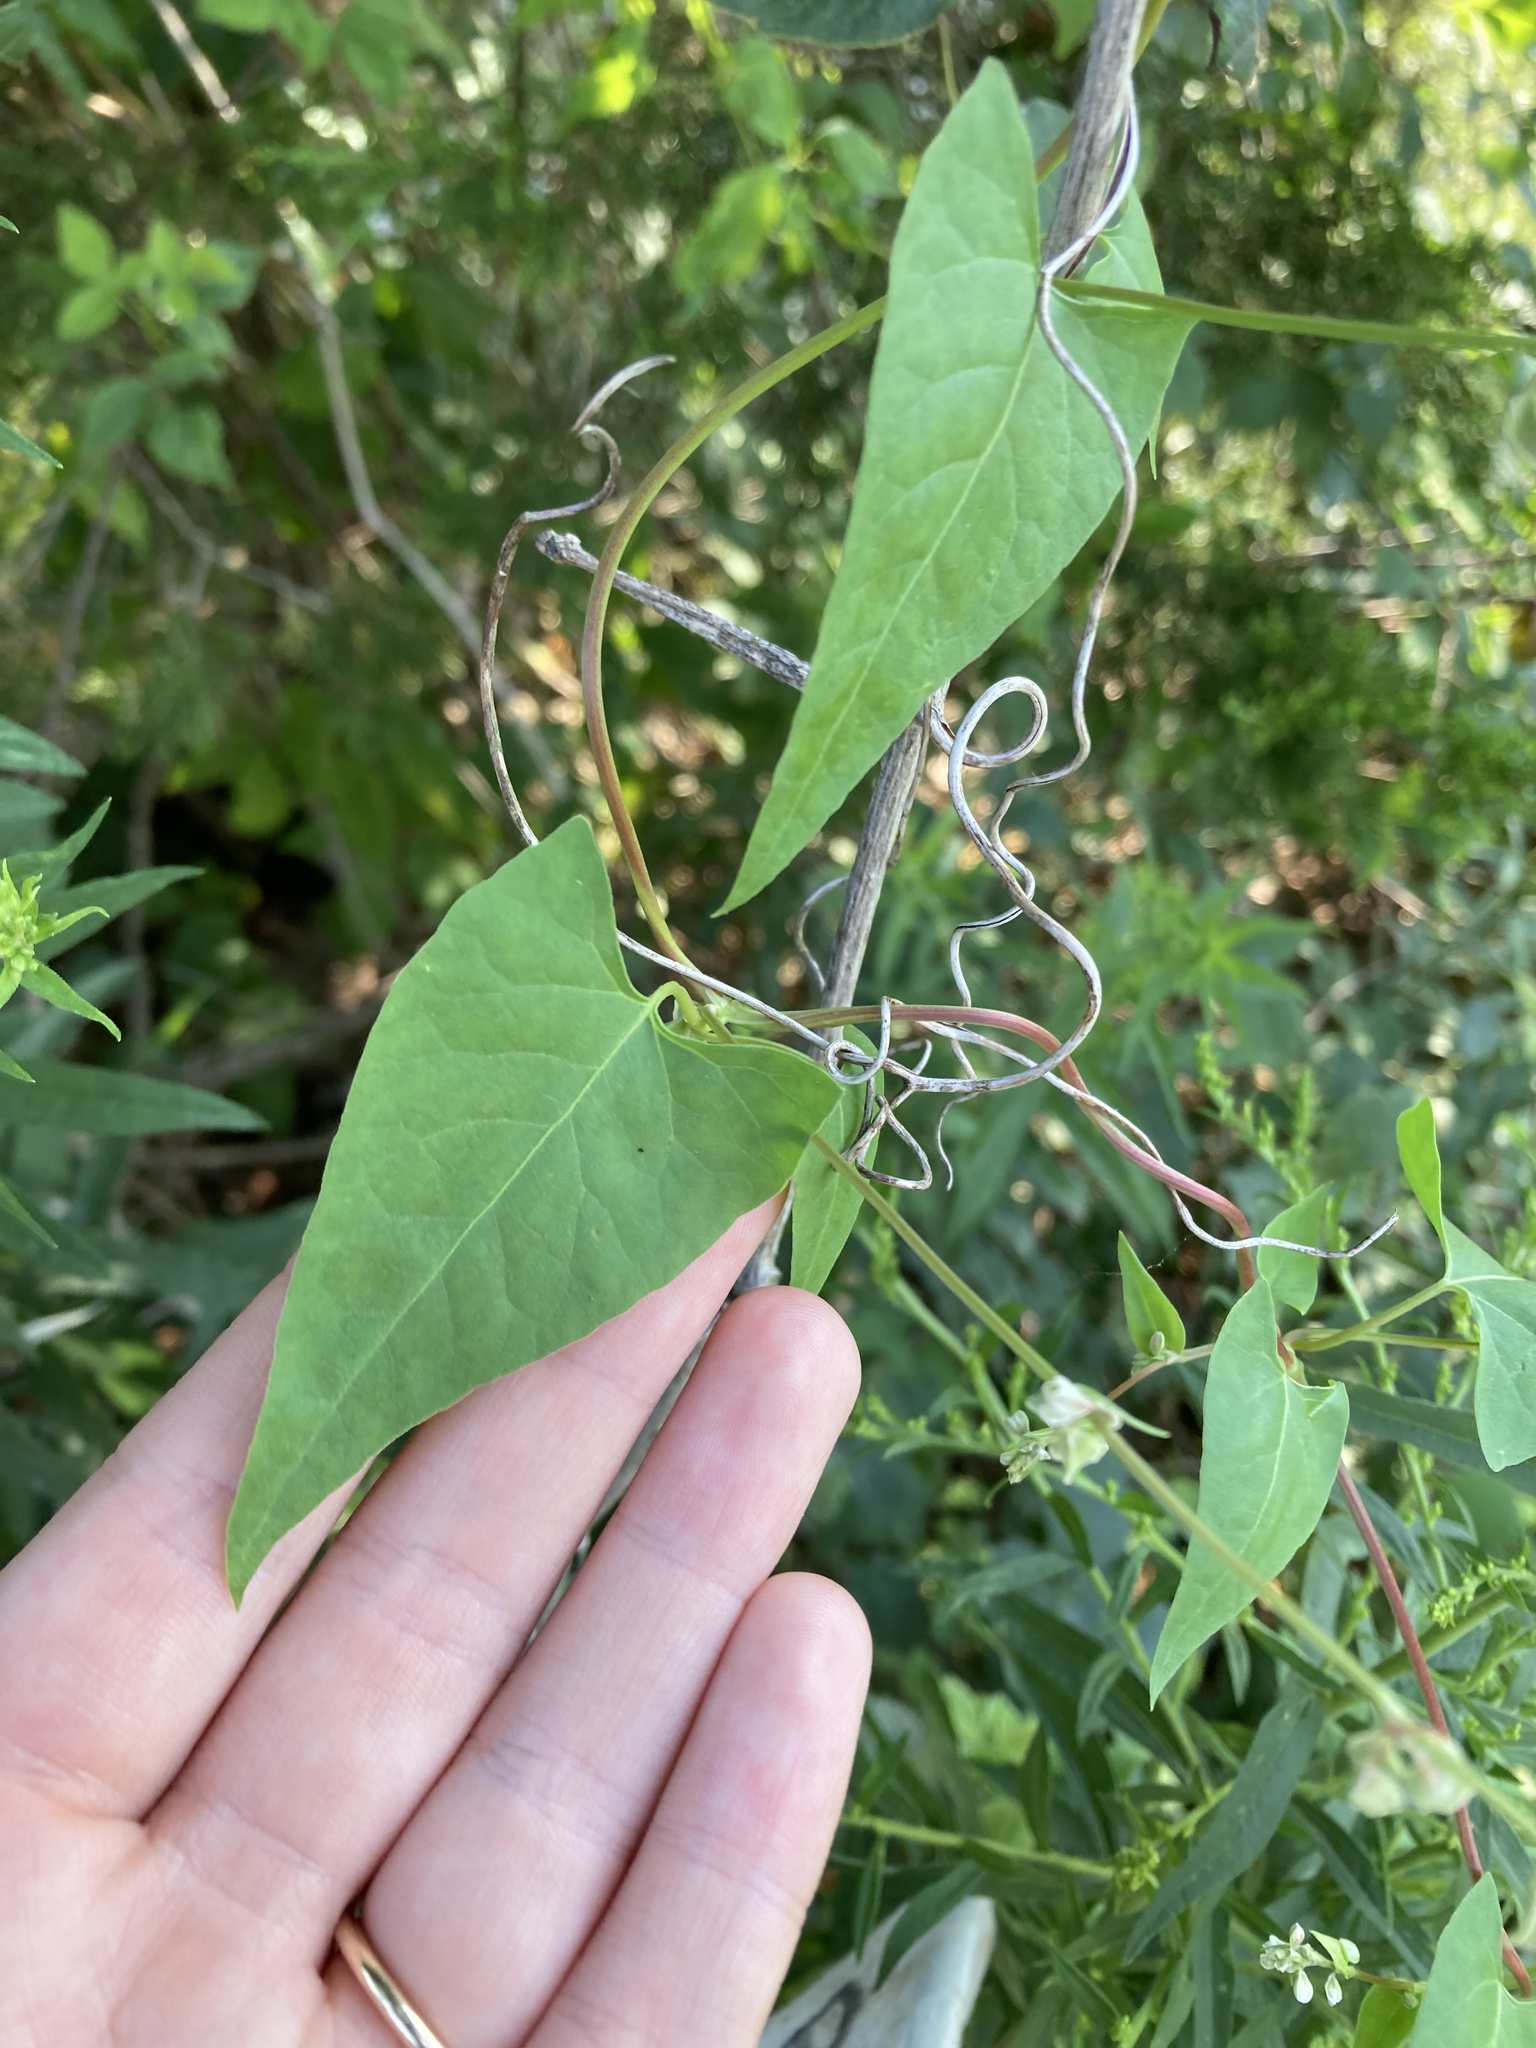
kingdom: Plantae
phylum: Tracheophyta
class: Magnoliopsida
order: Caryophyllales
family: Polygonaceae
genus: Fallopia
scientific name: Fallopia convolvulus
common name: Black bindweed
